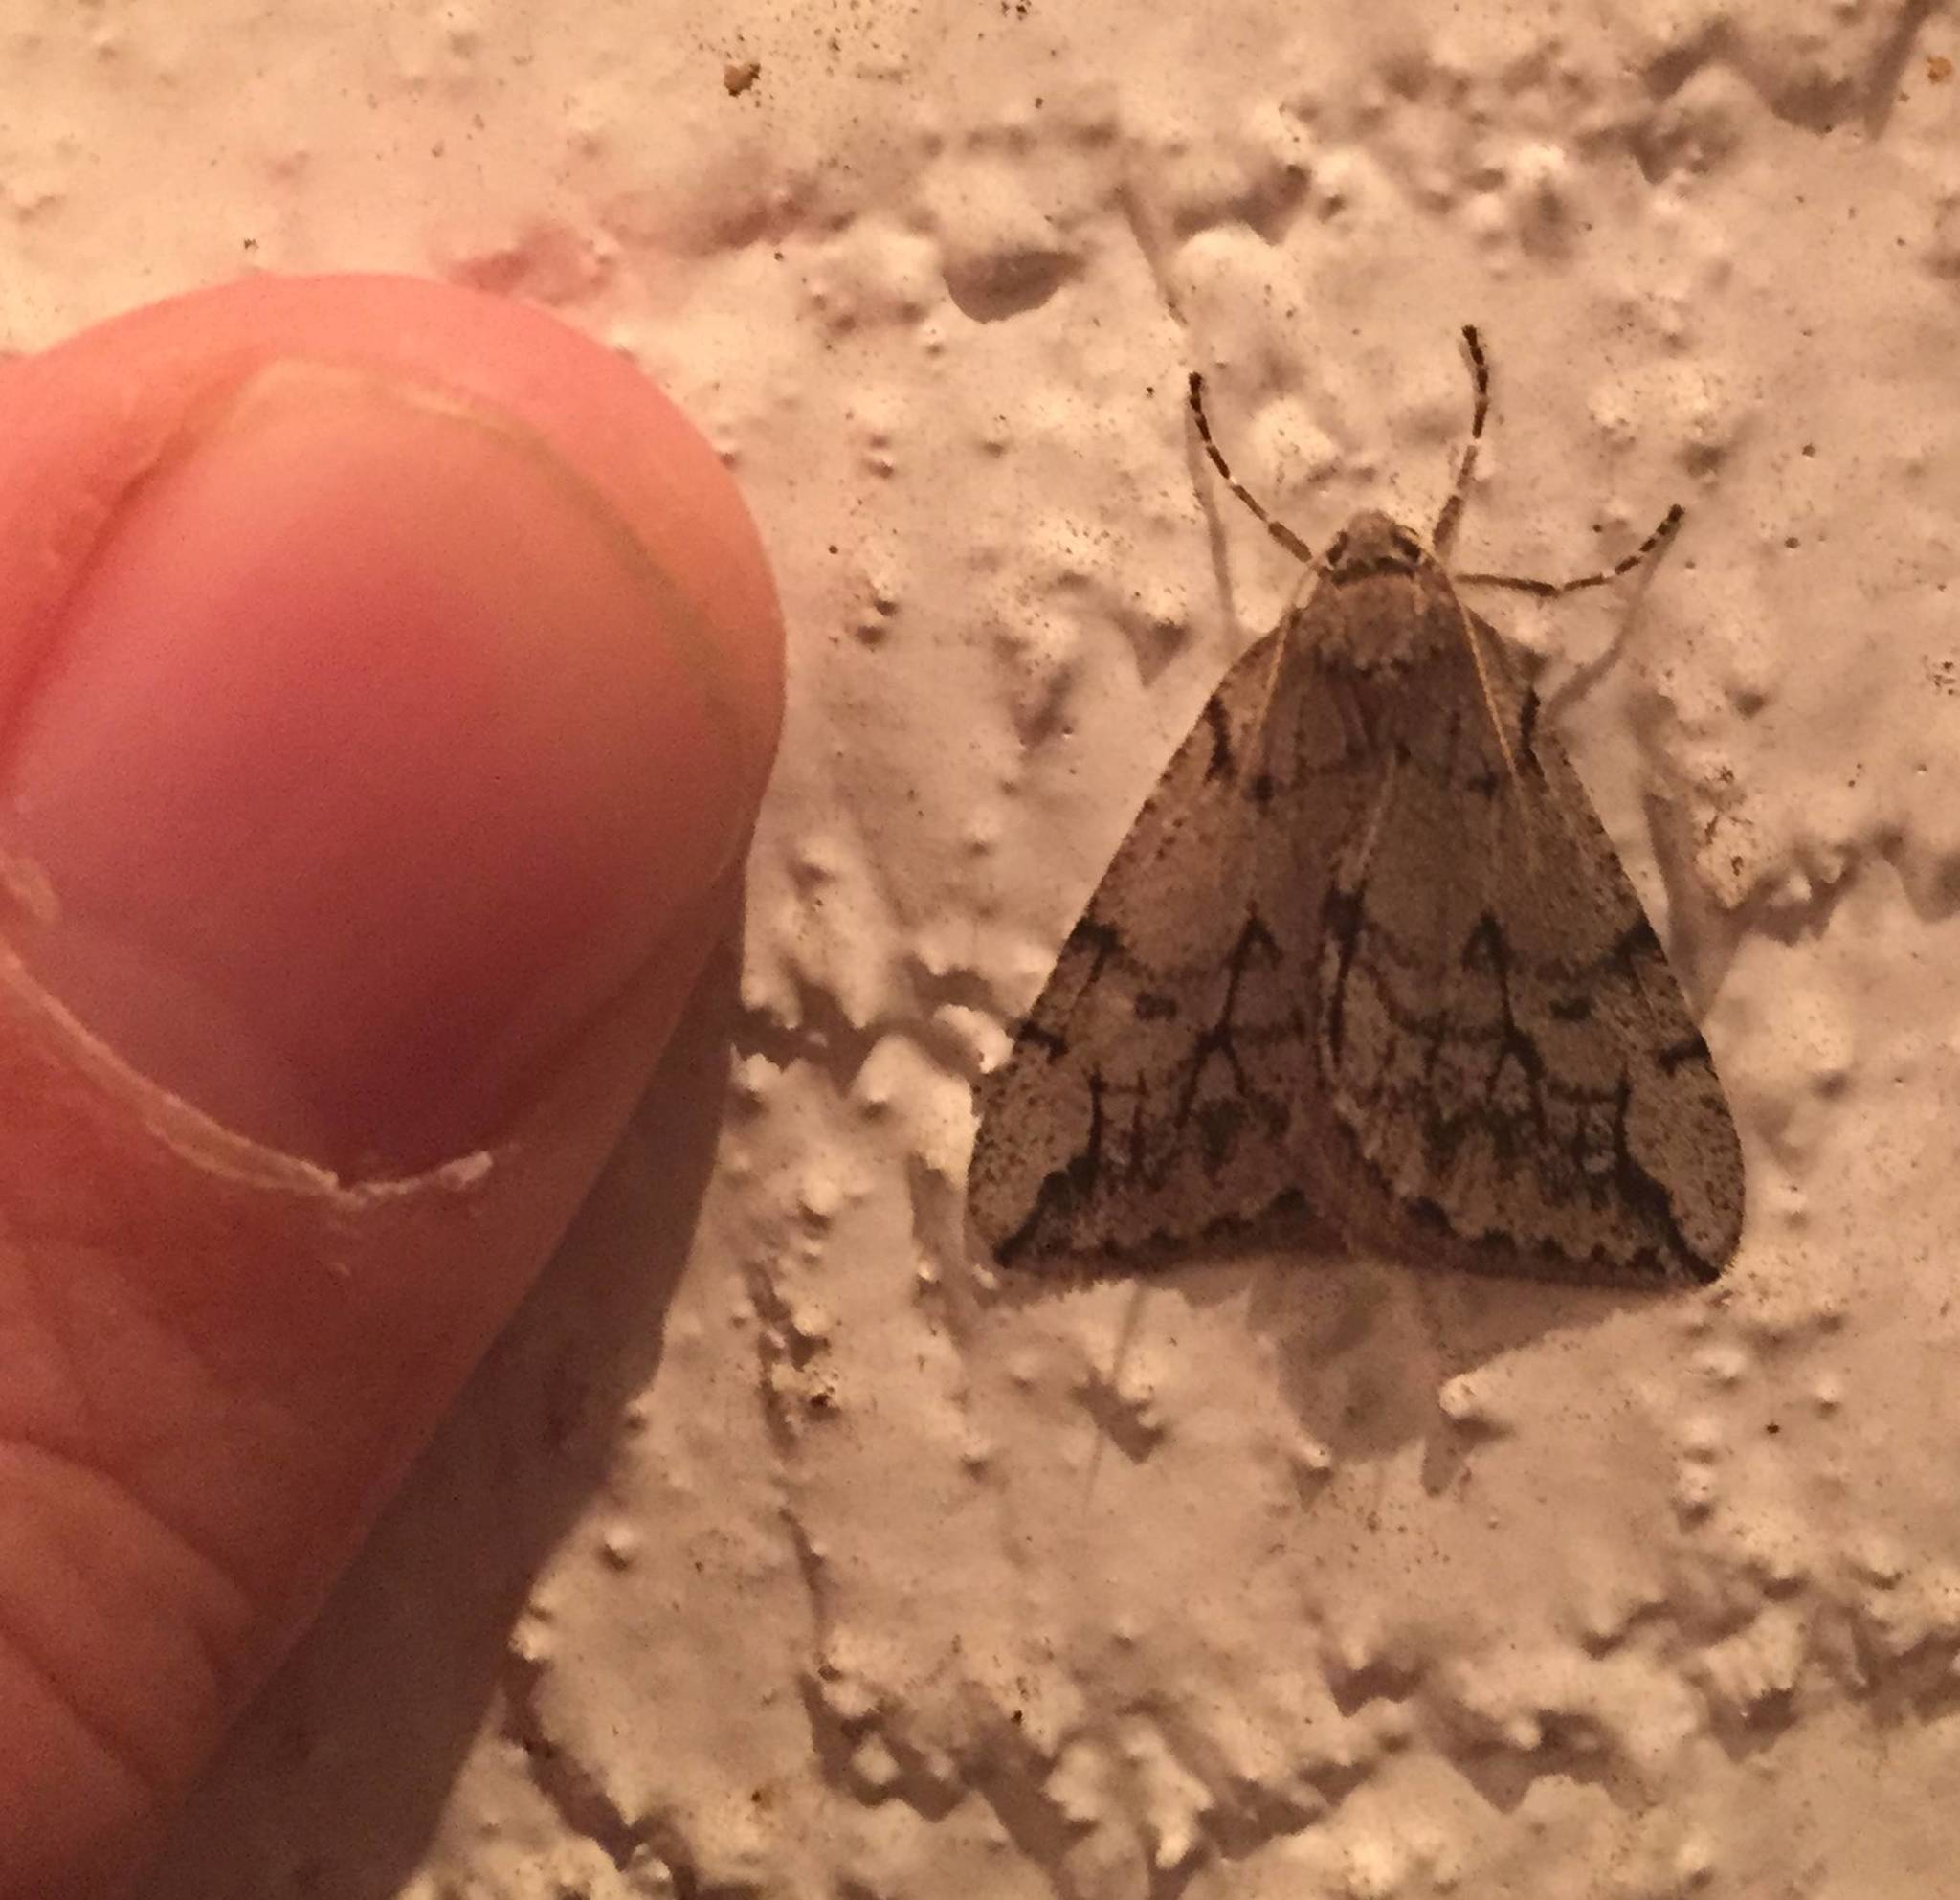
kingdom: Animalia
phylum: Arthropoda
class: Insecta
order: Lepidoptera
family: Geometridae
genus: Paleacrita
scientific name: Paleacrita vernata
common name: Spring cankerworm
